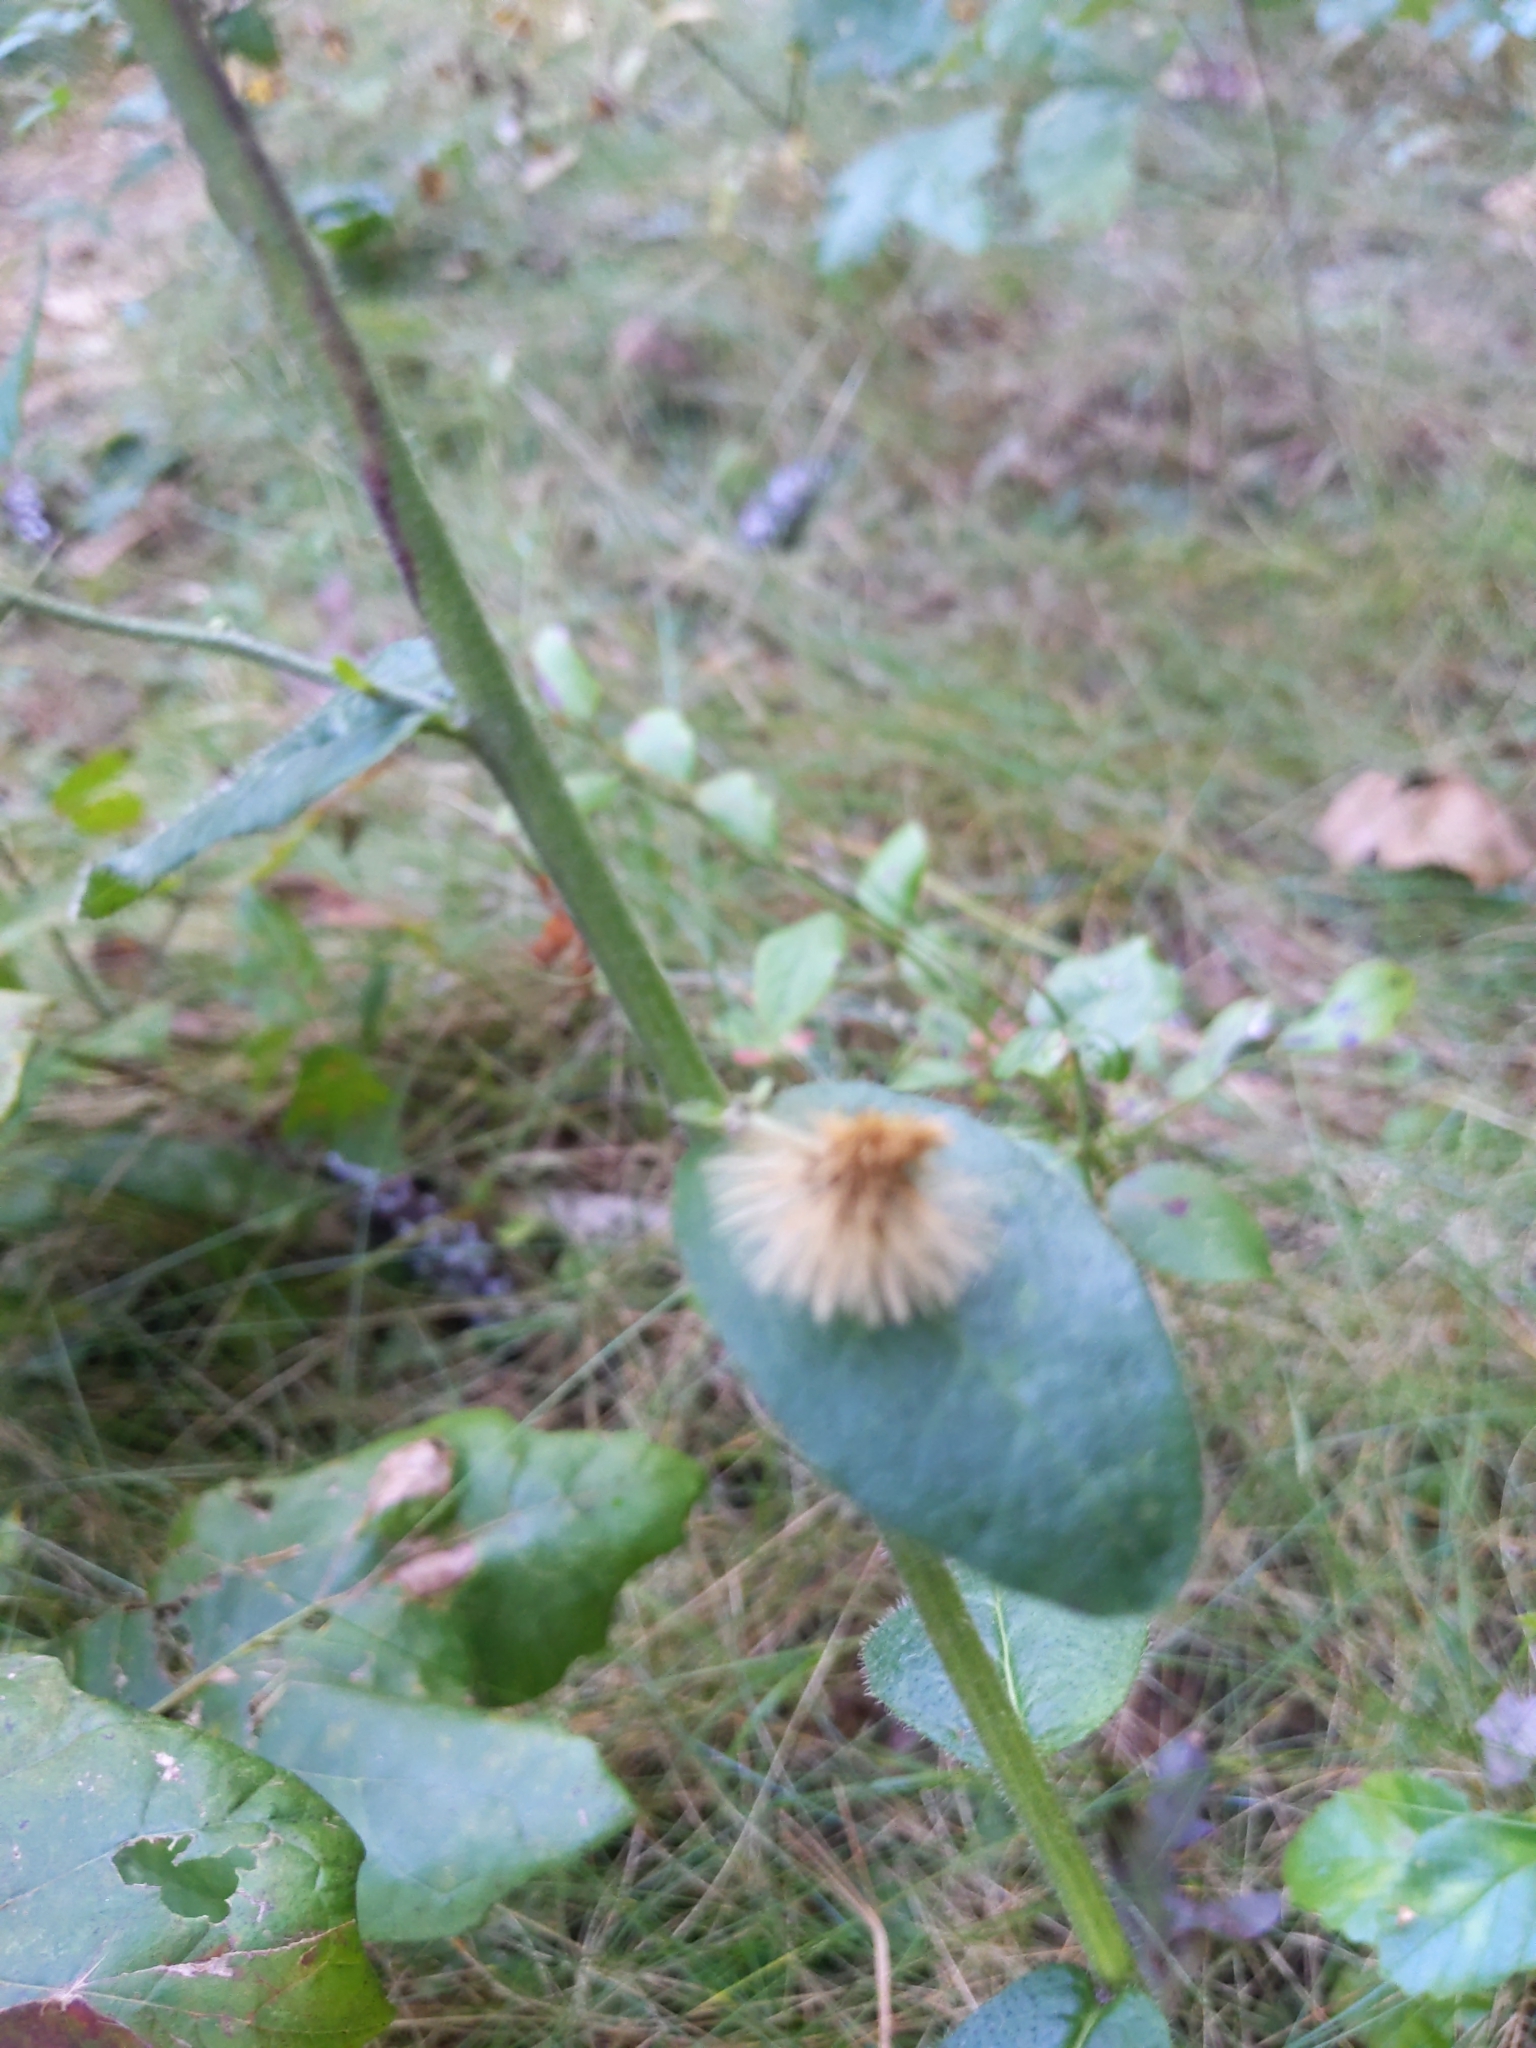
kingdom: Plantae
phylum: Tracheophyta
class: Magnoliopsida
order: Asterales
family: Asteraceae
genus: Hieracium
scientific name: Hieracium scabrum
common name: Rough hawkweed
